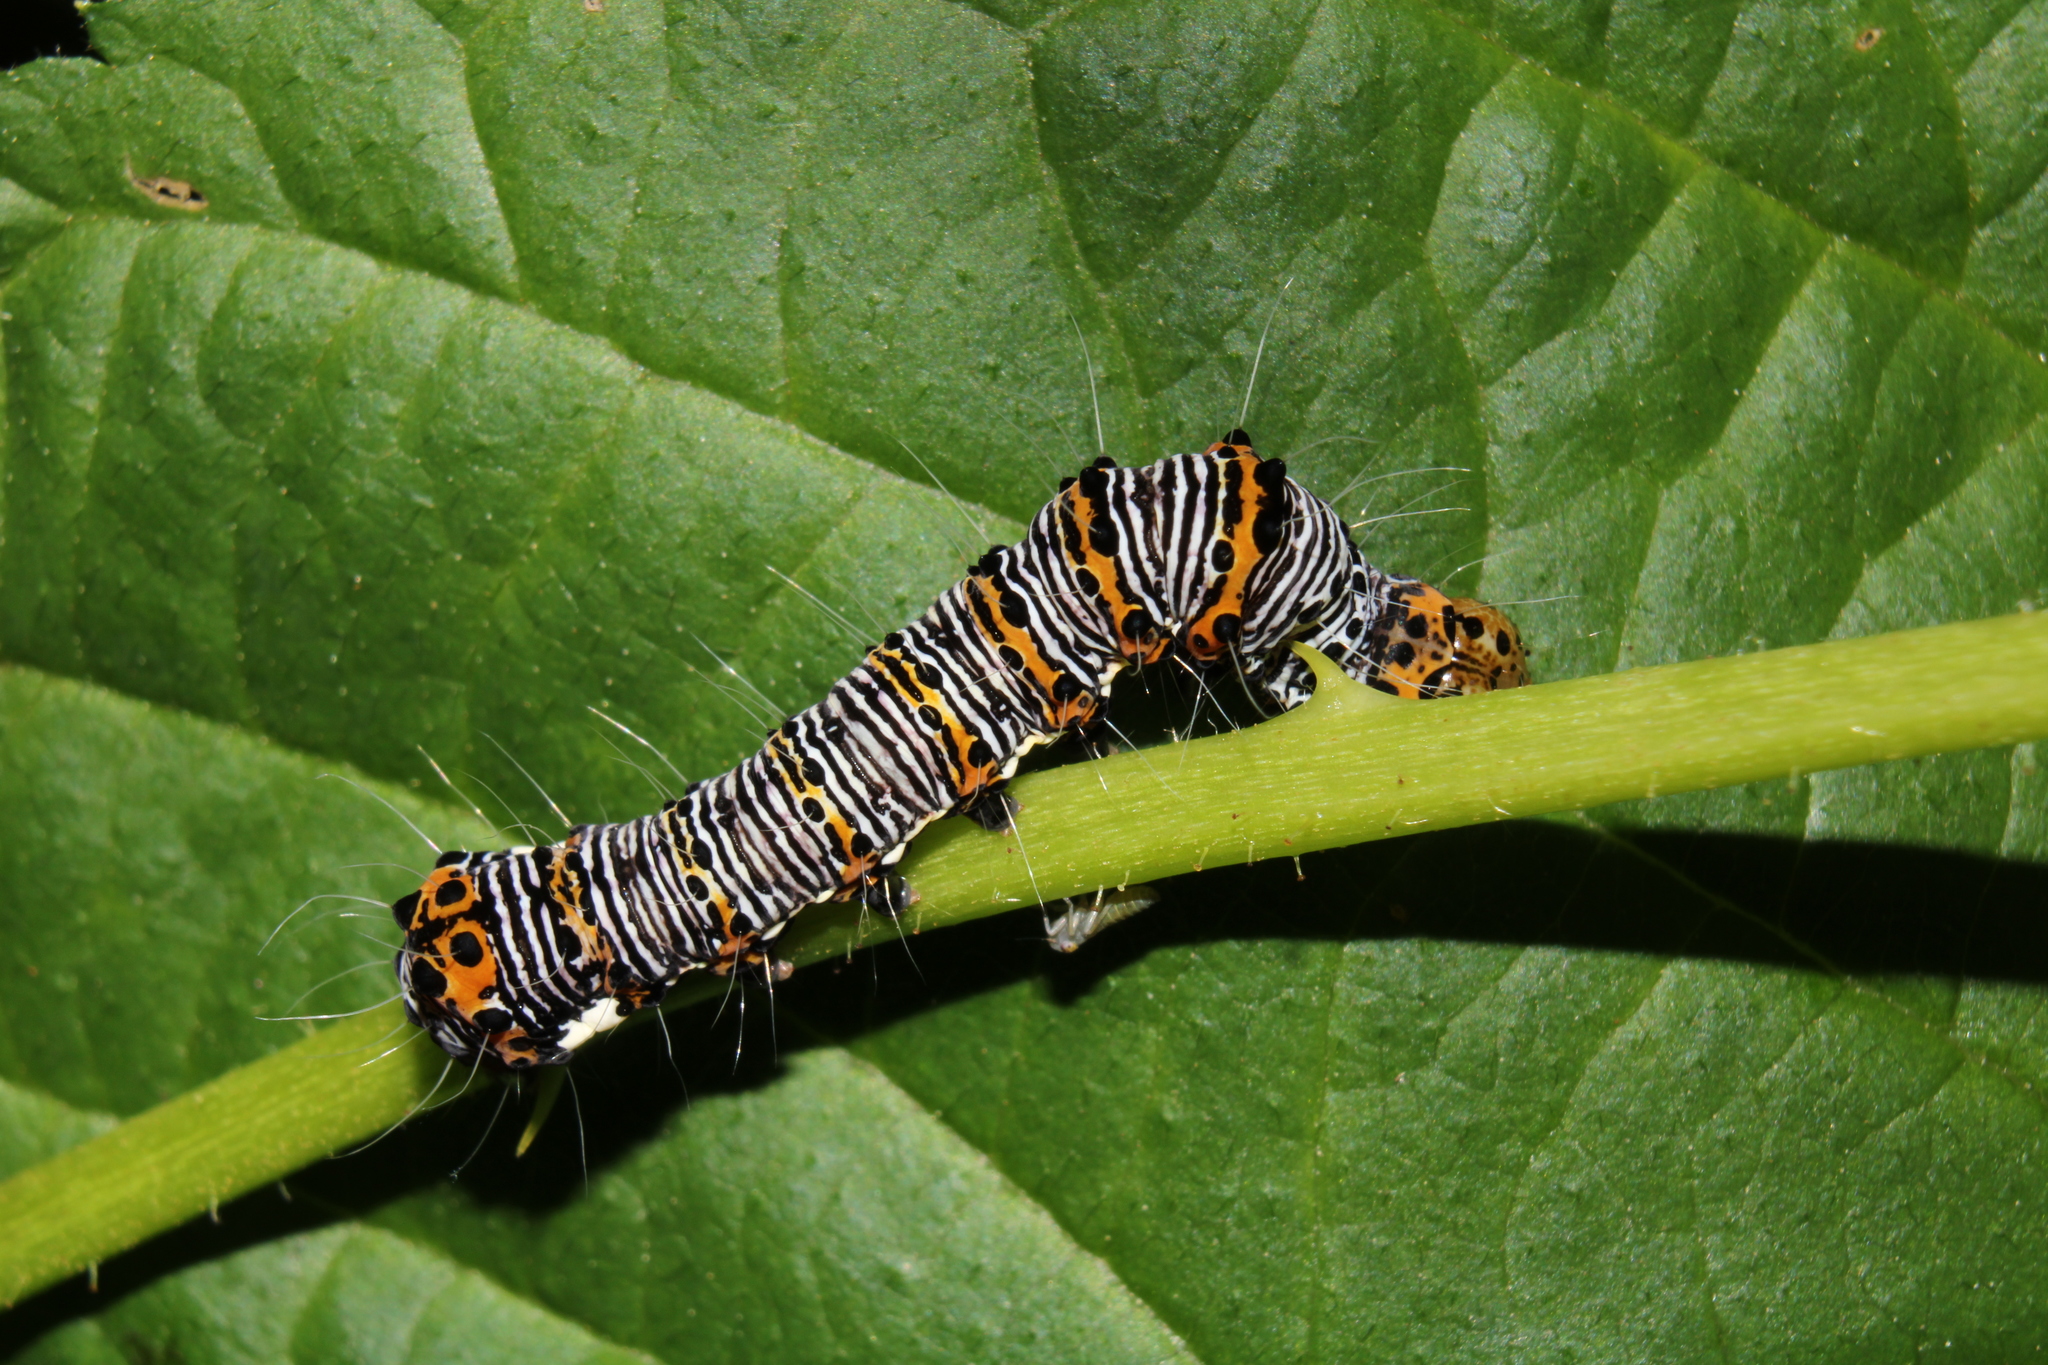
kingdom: Animalia
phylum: Arthropoda
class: Insecta
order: Lepidoptera
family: Noctuidae
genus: Alypia
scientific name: Alypia octomaculata
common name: Eight-spotted forester
